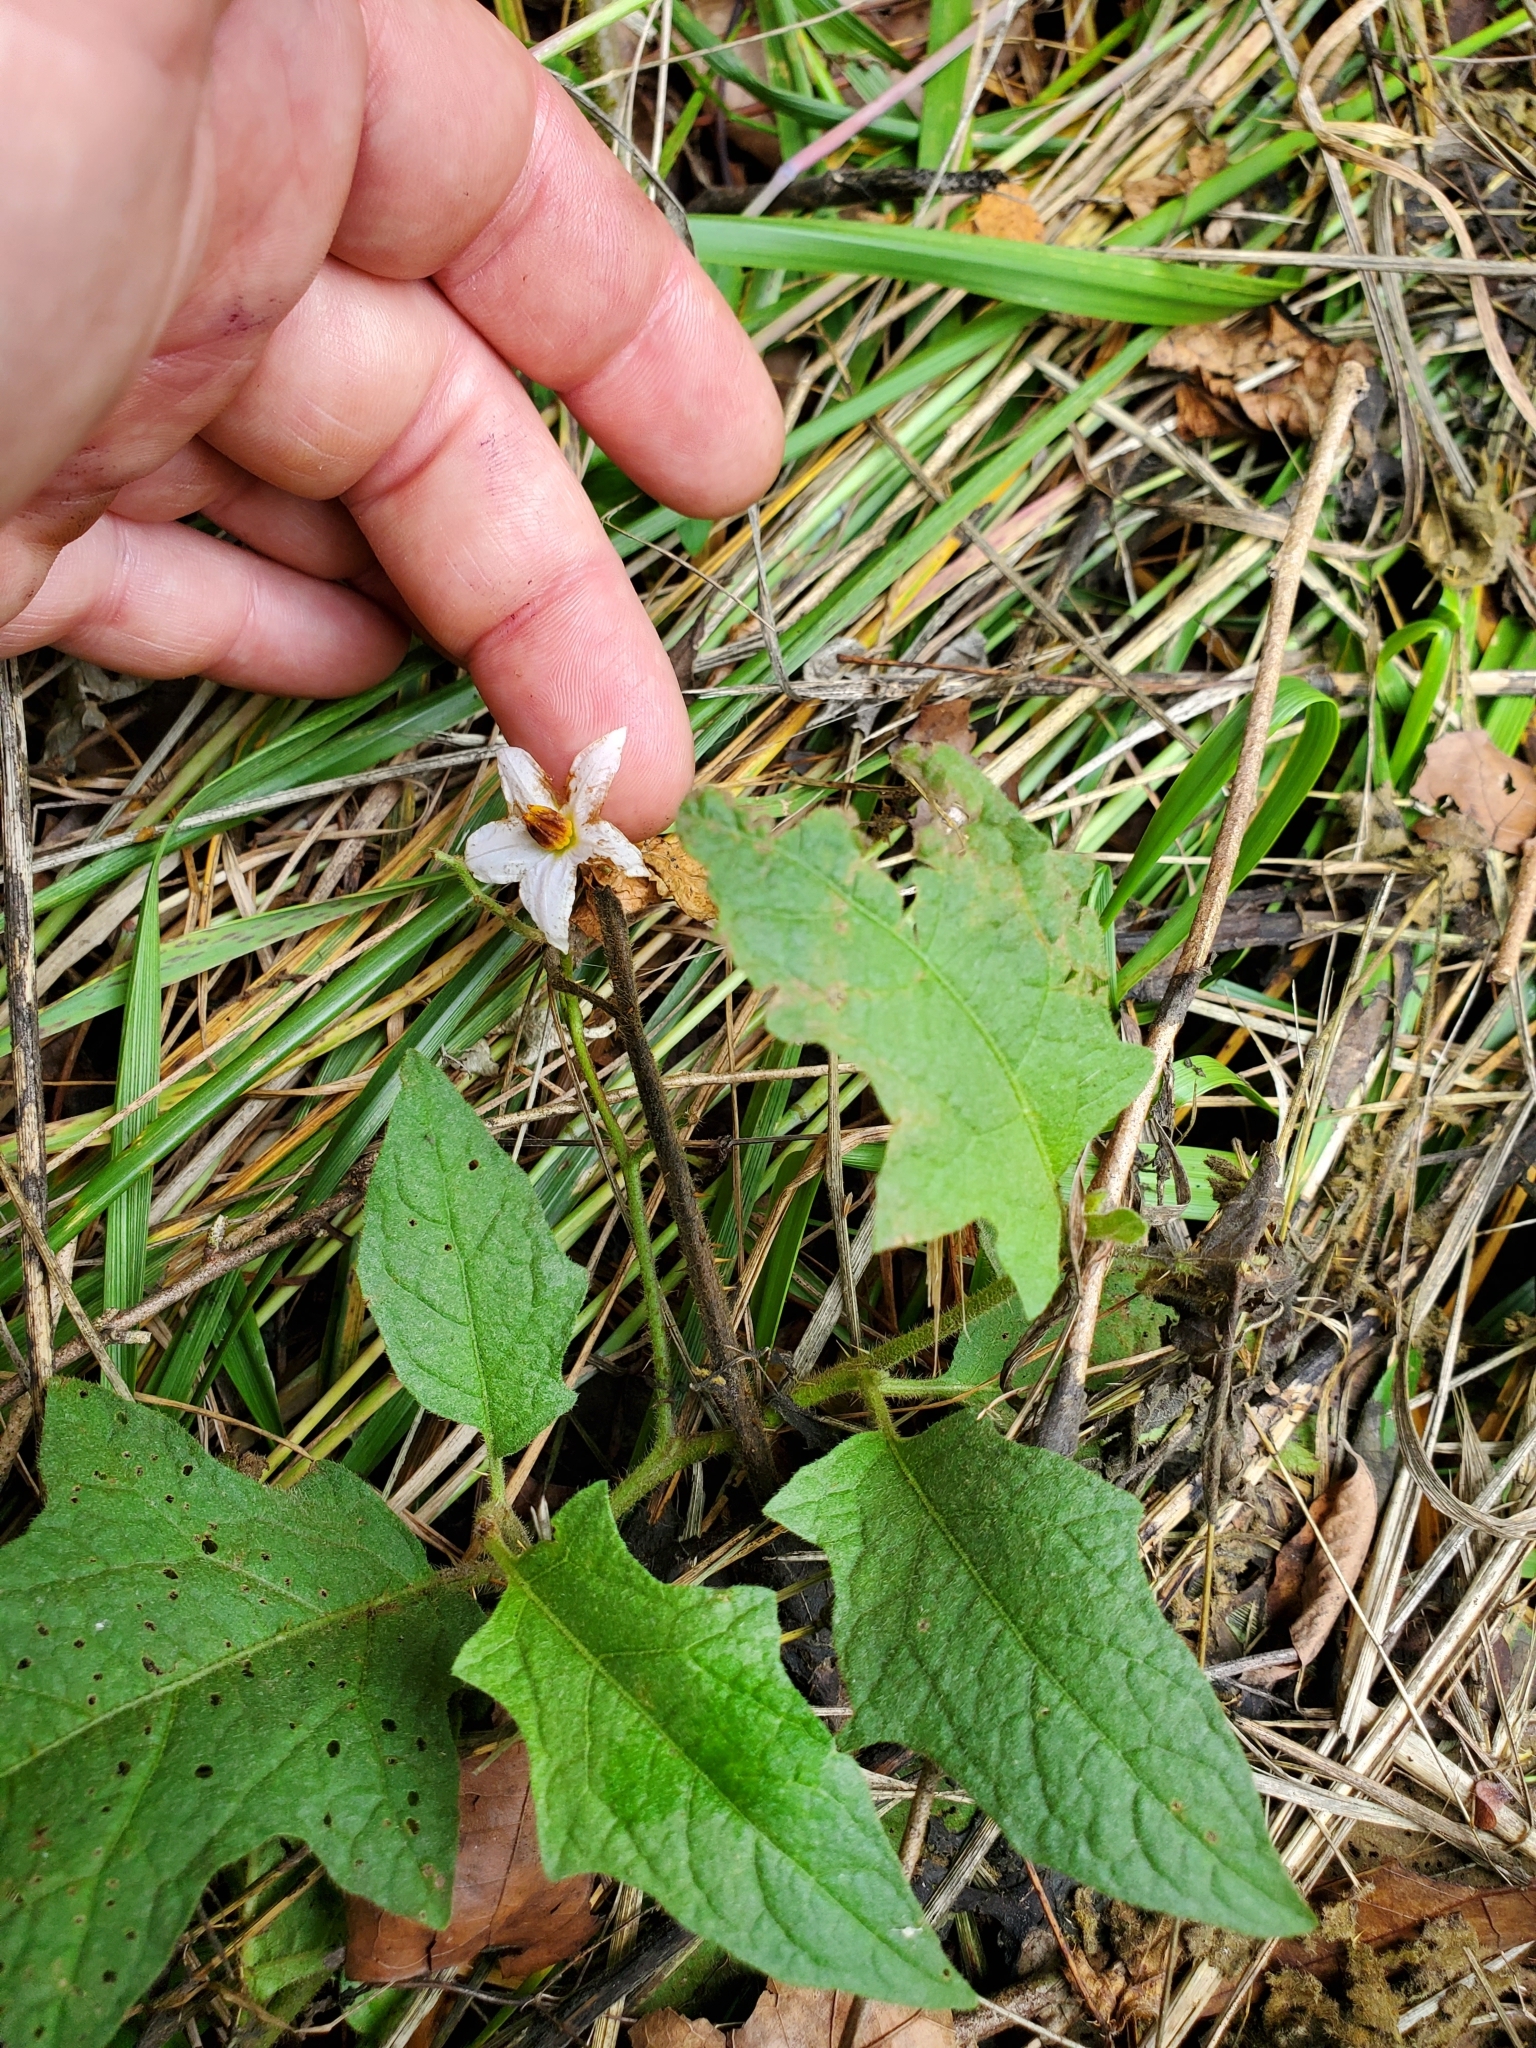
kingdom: Plantae
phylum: Tracheophyta
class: Magnoliopsida
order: Solanales
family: Solanaceae
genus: Solanum
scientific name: Solanum carolinense
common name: Horse-nettle
